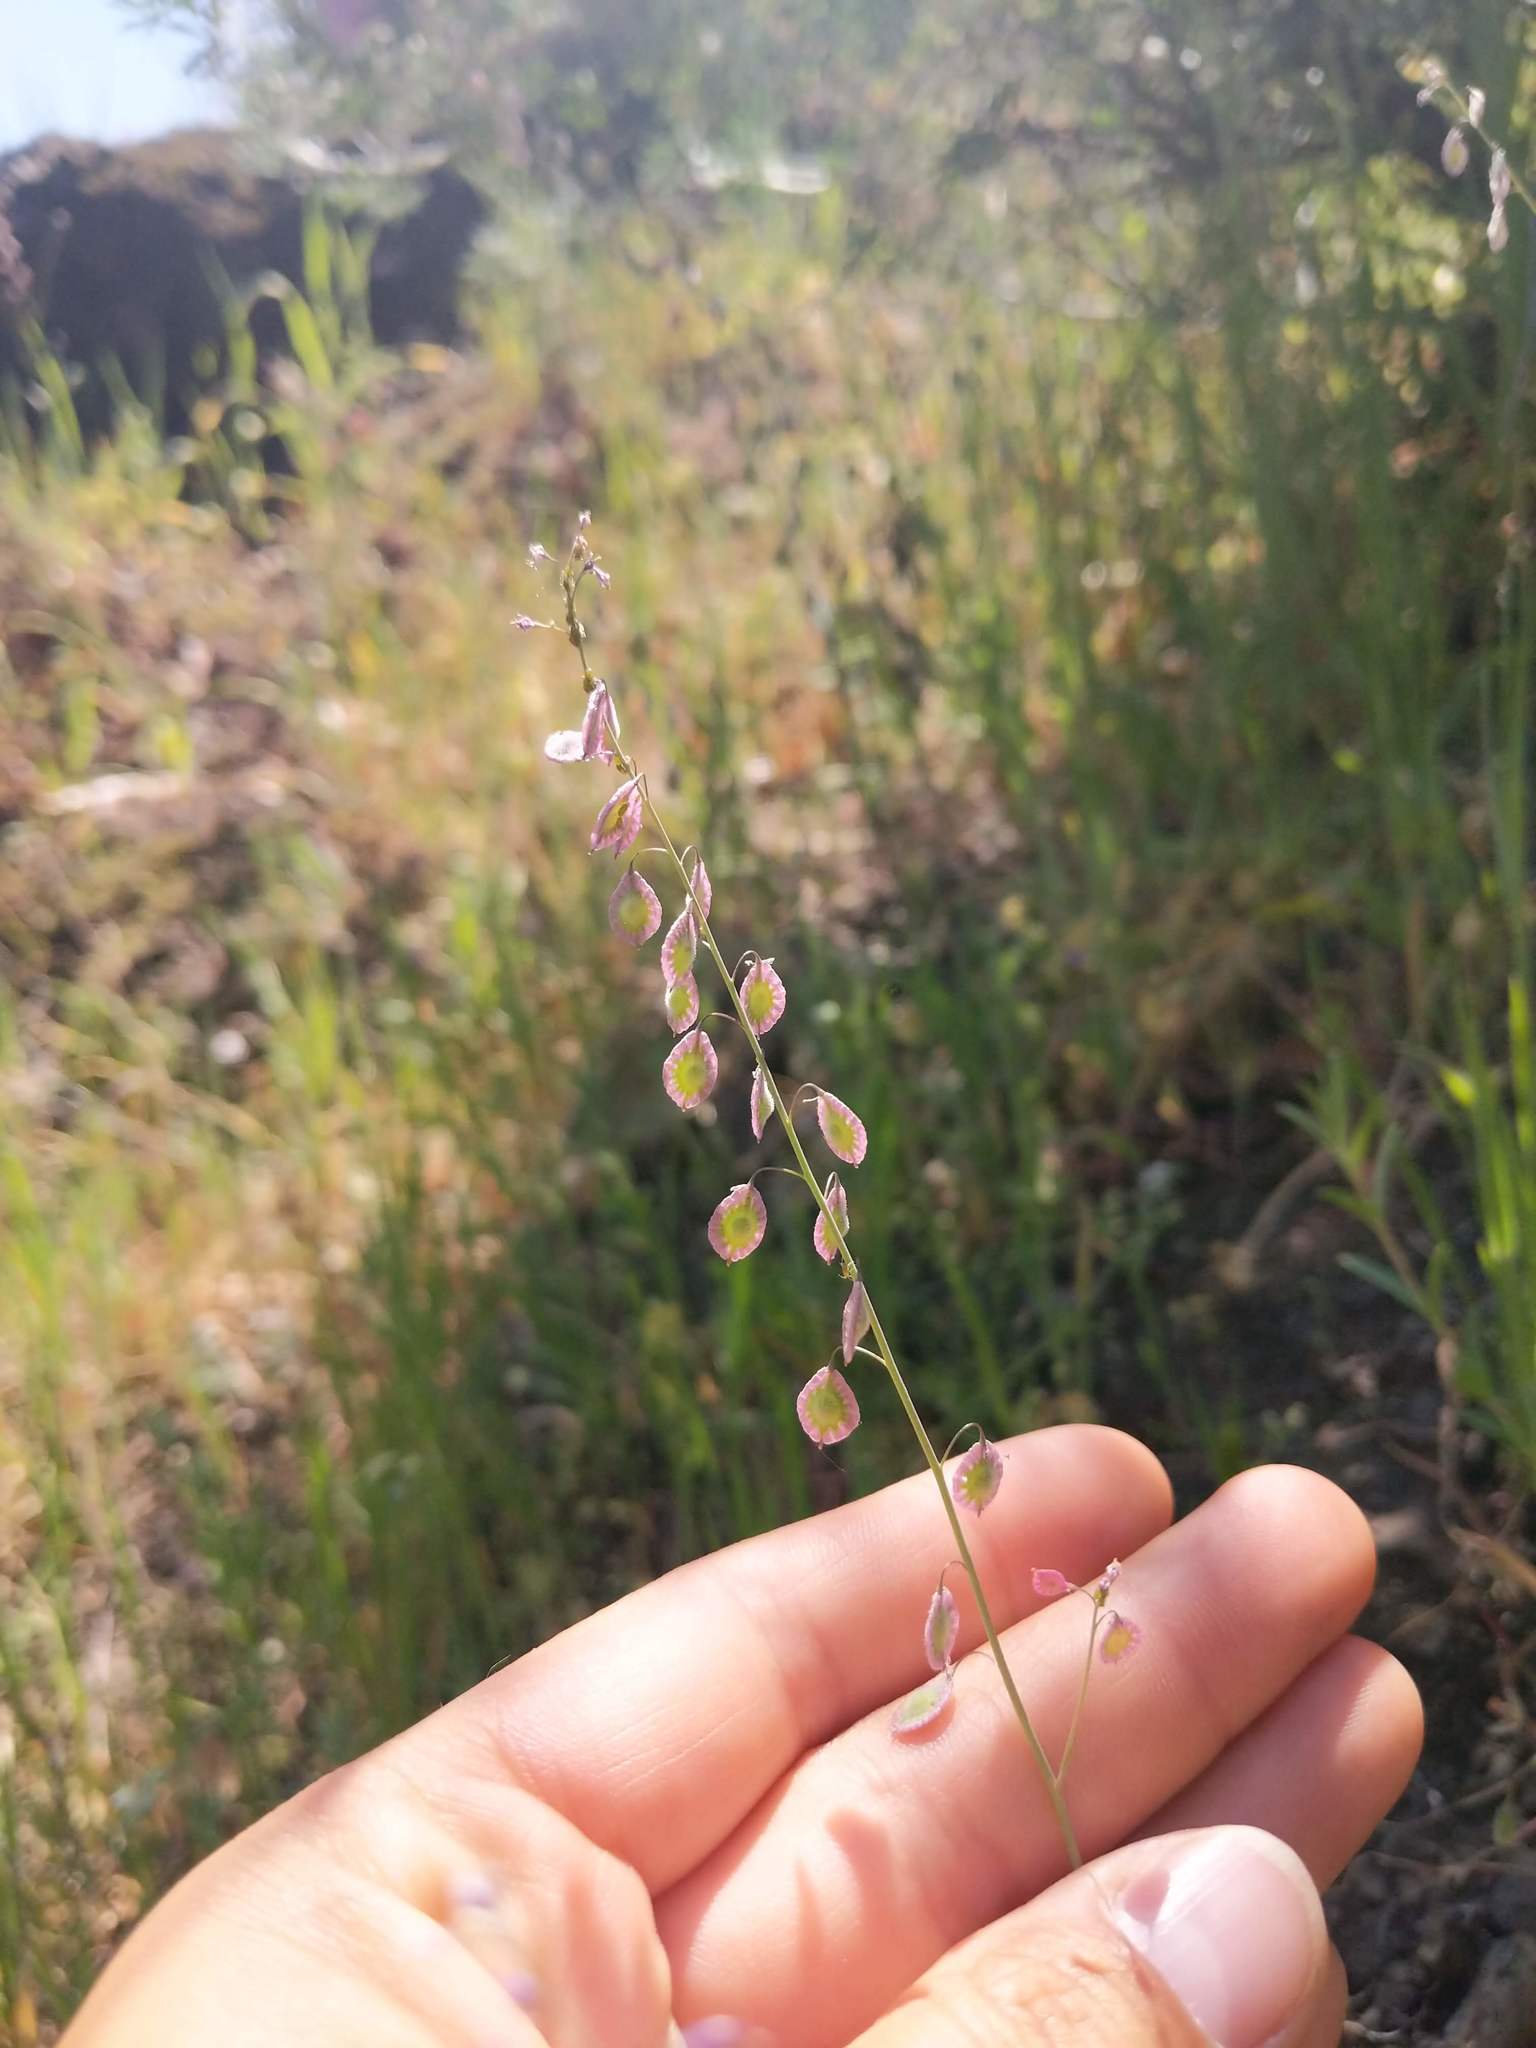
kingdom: Plantae
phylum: Tracheophyta
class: Magnoliopsida
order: Brassicales
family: Brassicaceae
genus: Thysanocarpus
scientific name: Thysanocarpus curvipes
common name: Sand fringepod
